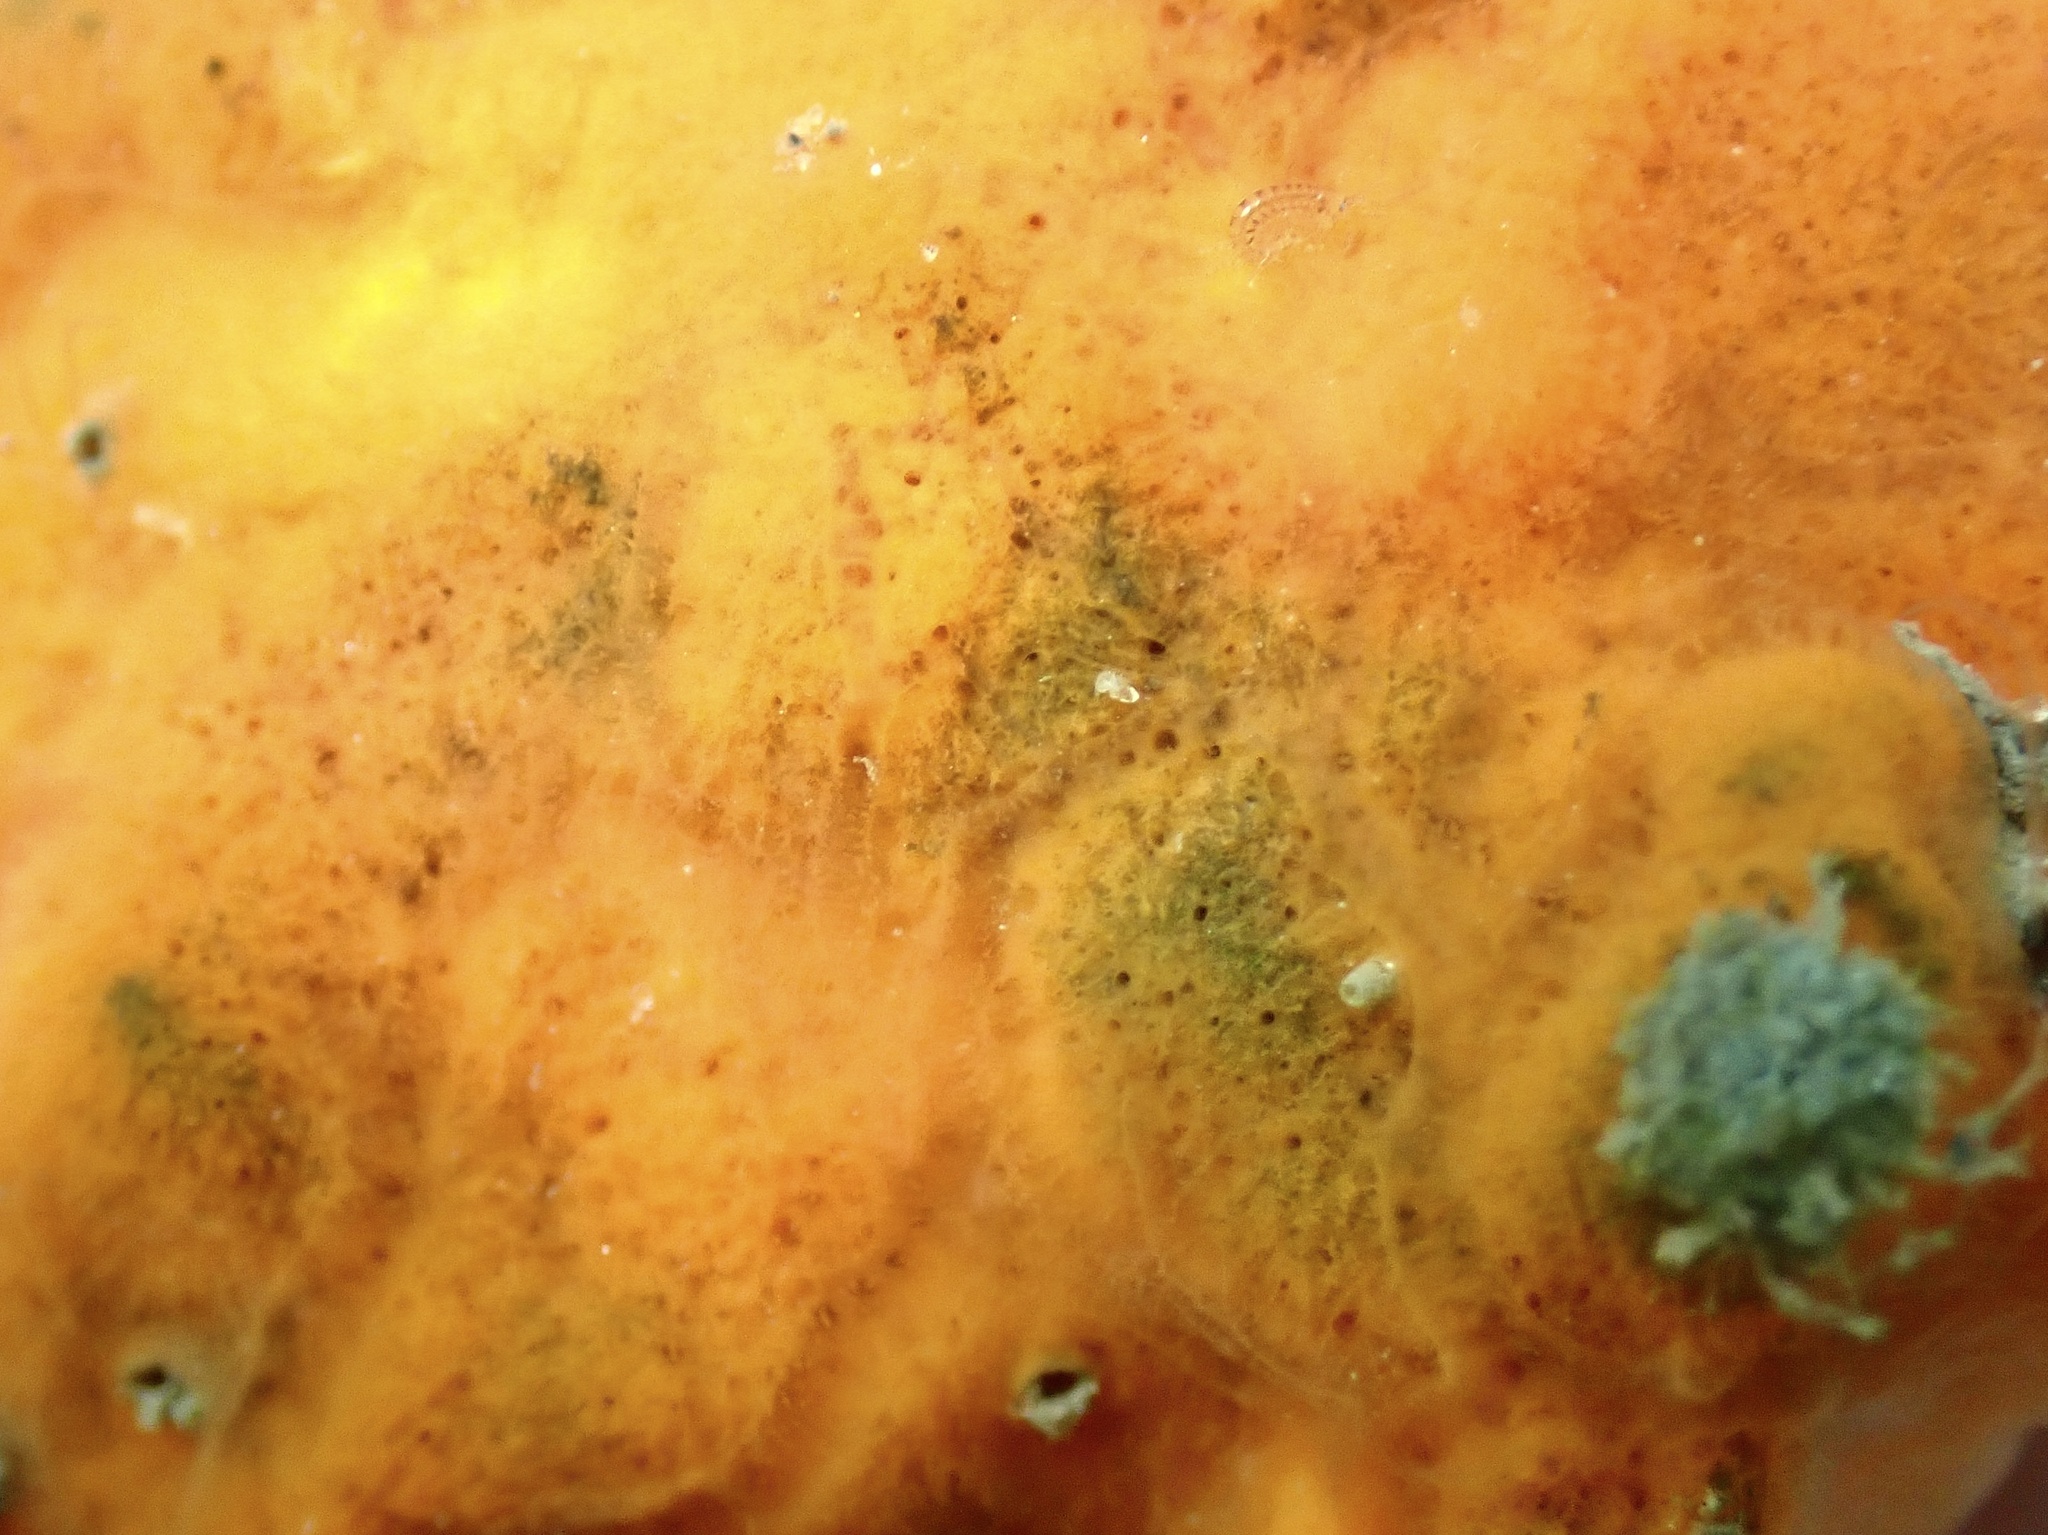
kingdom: Animalia
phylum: Porifera
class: Demospongiae
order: Poecilosclerida
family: Microcionidae
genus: Clathria
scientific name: Clathria prolifera
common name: Red beard sponge
